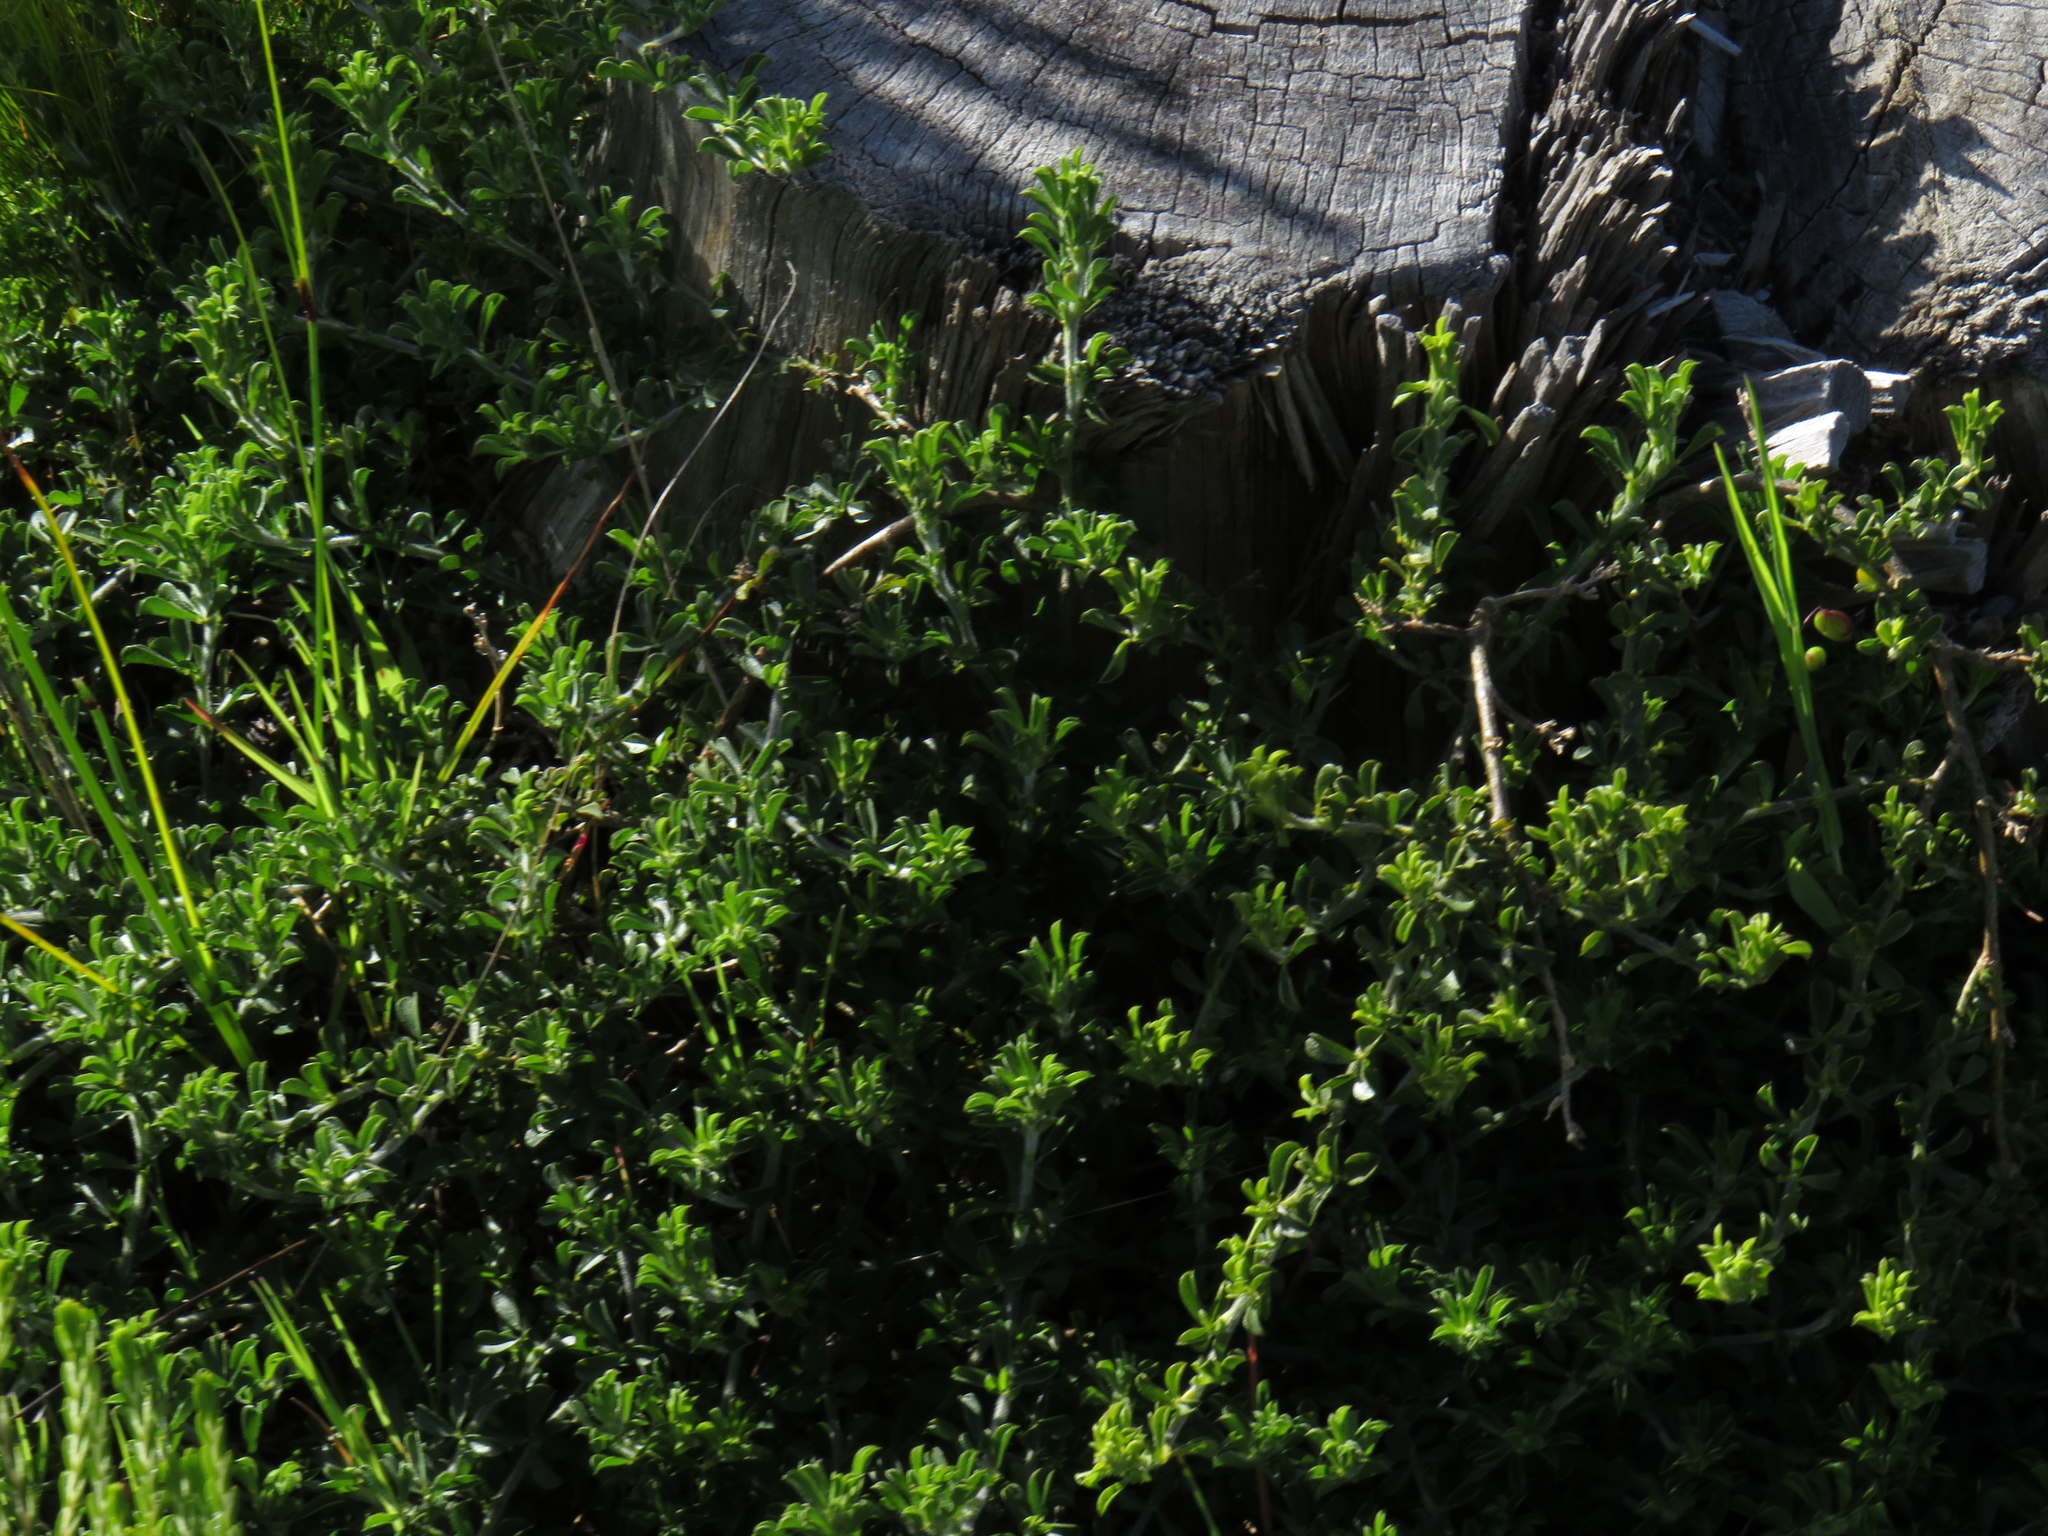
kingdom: Plantae
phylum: Tracheophyta
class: Magnoliopsida
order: Fabales
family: Fabaceae
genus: Psoralea
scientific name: Psoralea
